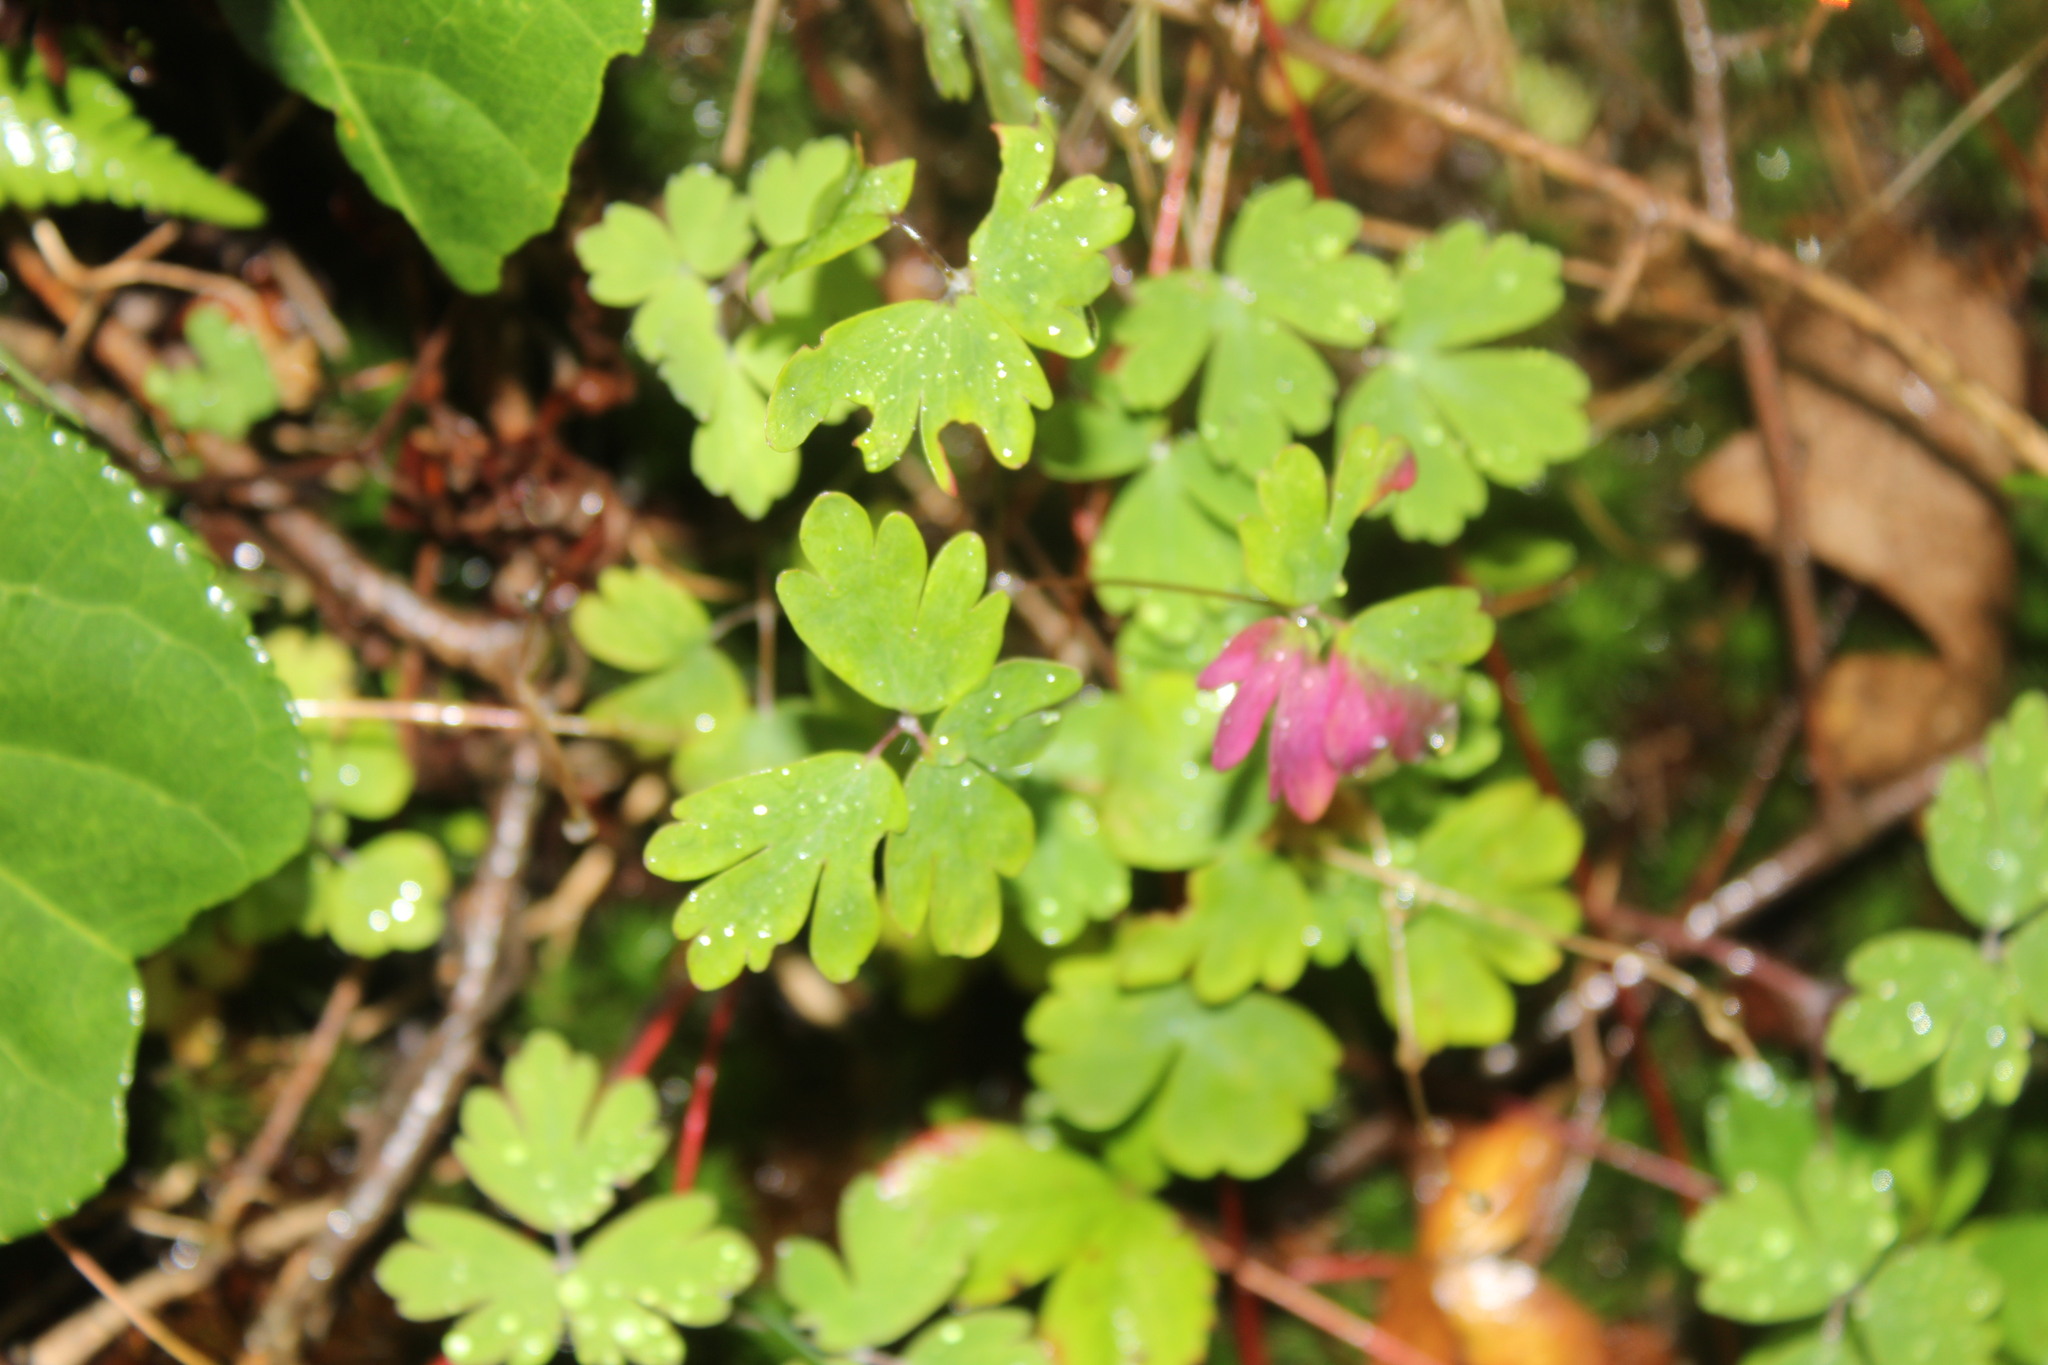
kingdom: Plantae
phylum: Tracheophyta
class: Magnoliopsida
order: Ranunculales
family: Ranunculaceae
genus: Aquilegia
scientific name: Aquilegia canadensis
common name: American columbine
